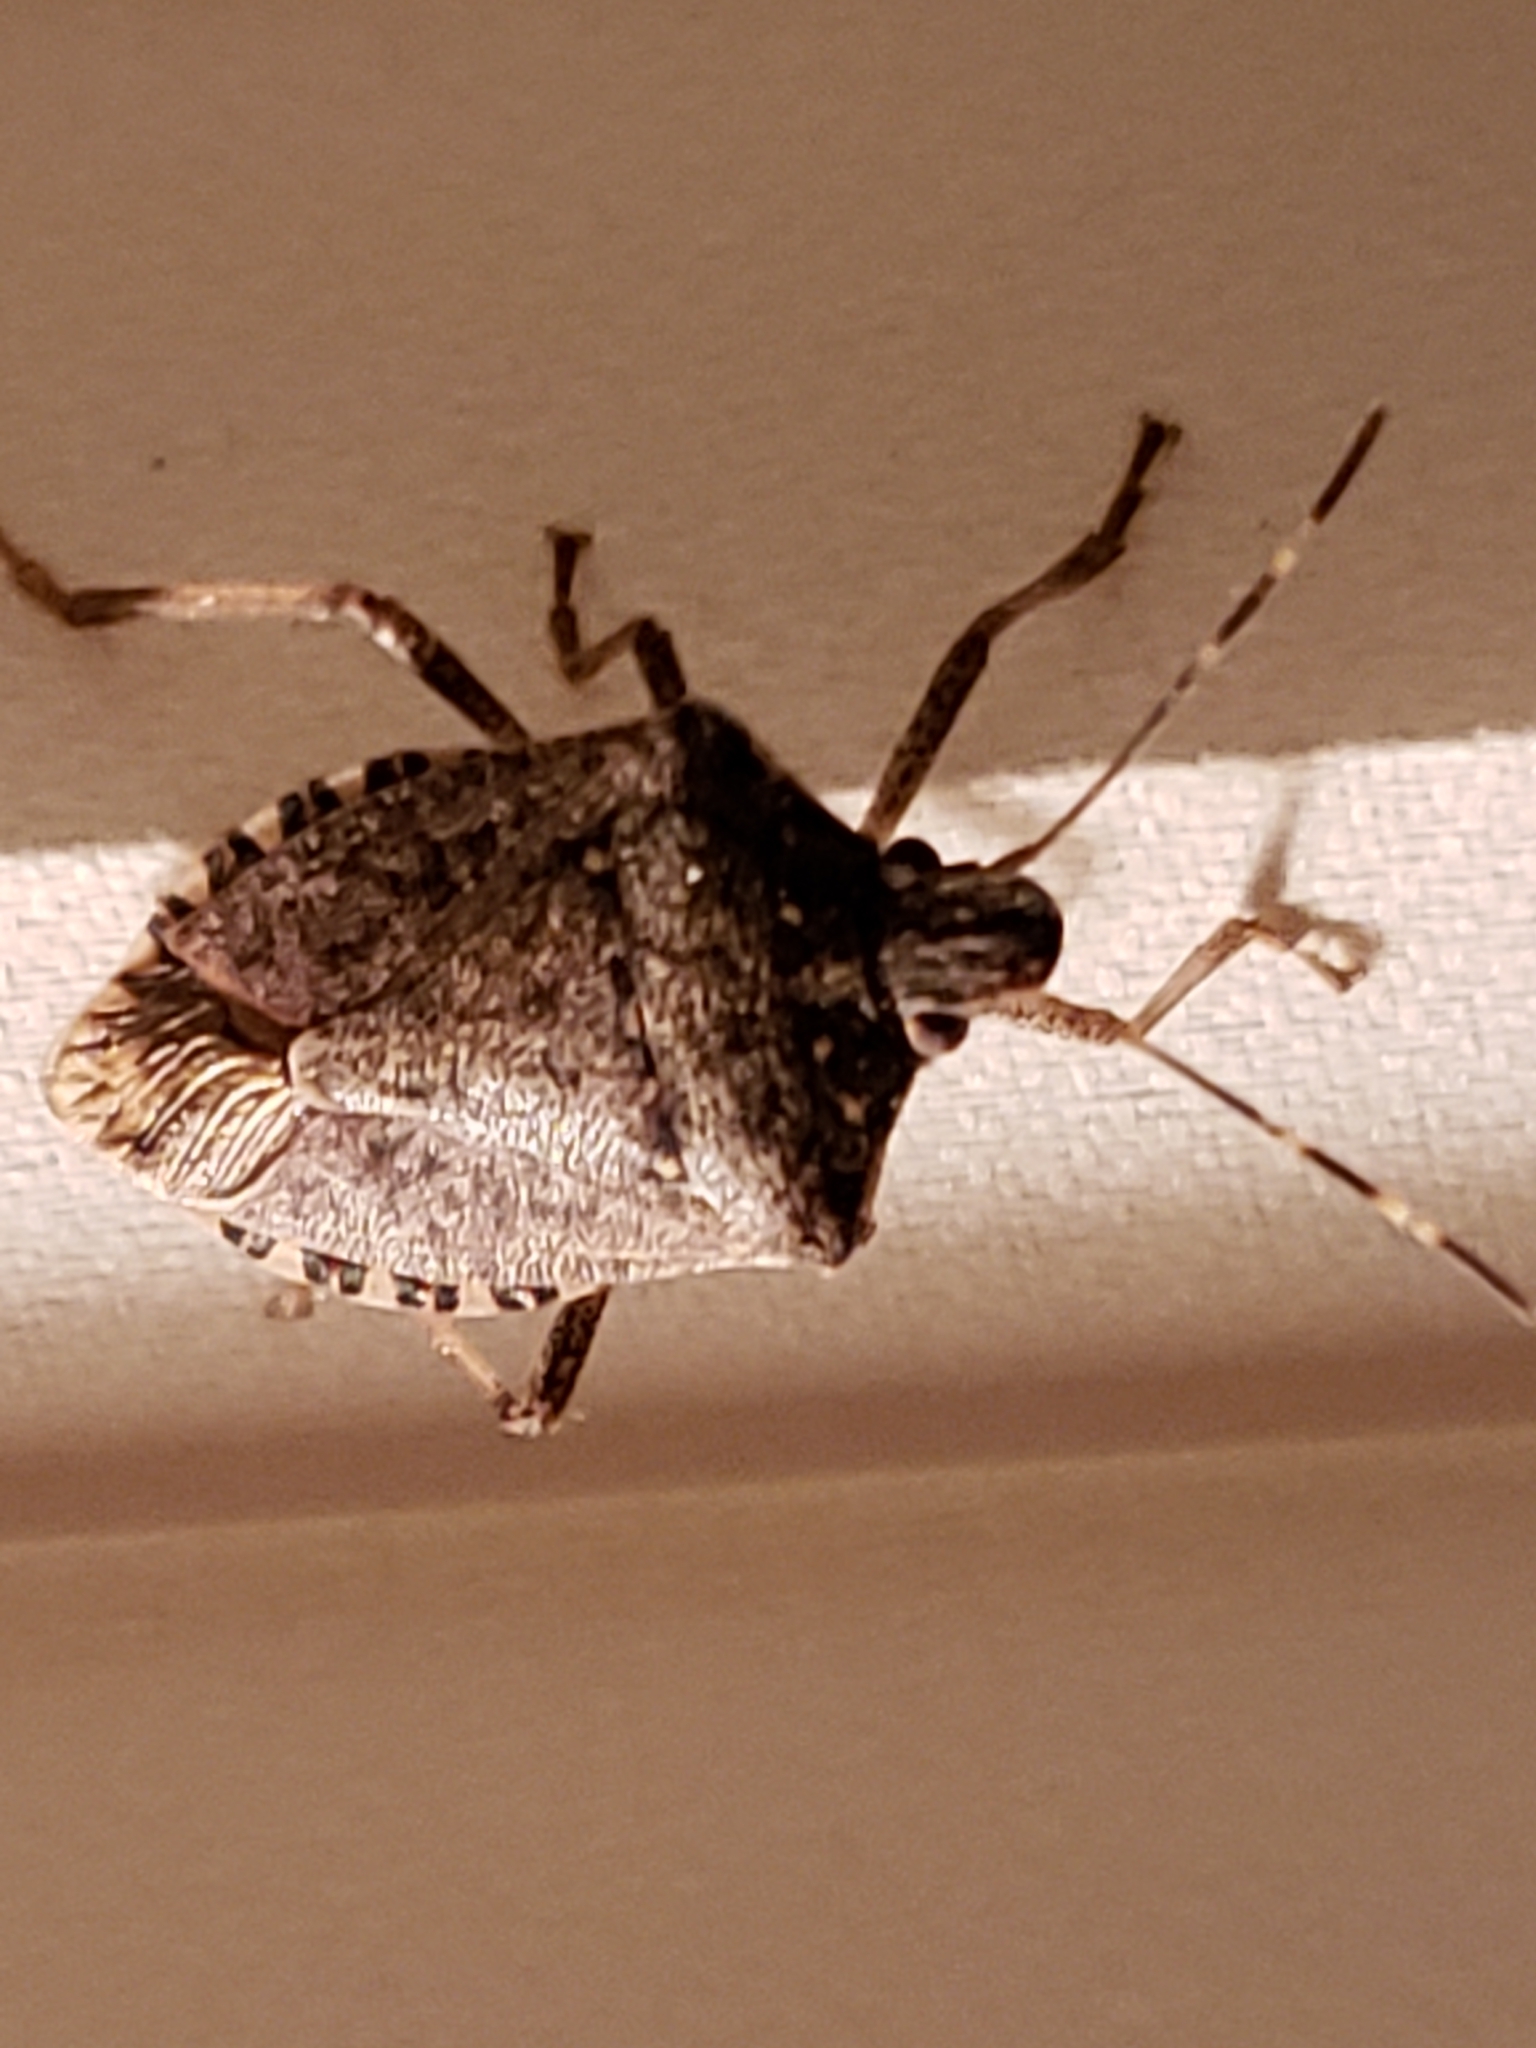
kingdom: Animalia
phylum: Arthropoda
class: Insecta
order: Hemiptera
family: Pentatomidae
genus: Halyomorpha
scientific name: Halyomorpha halys
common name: Brown marmorated stink bug
